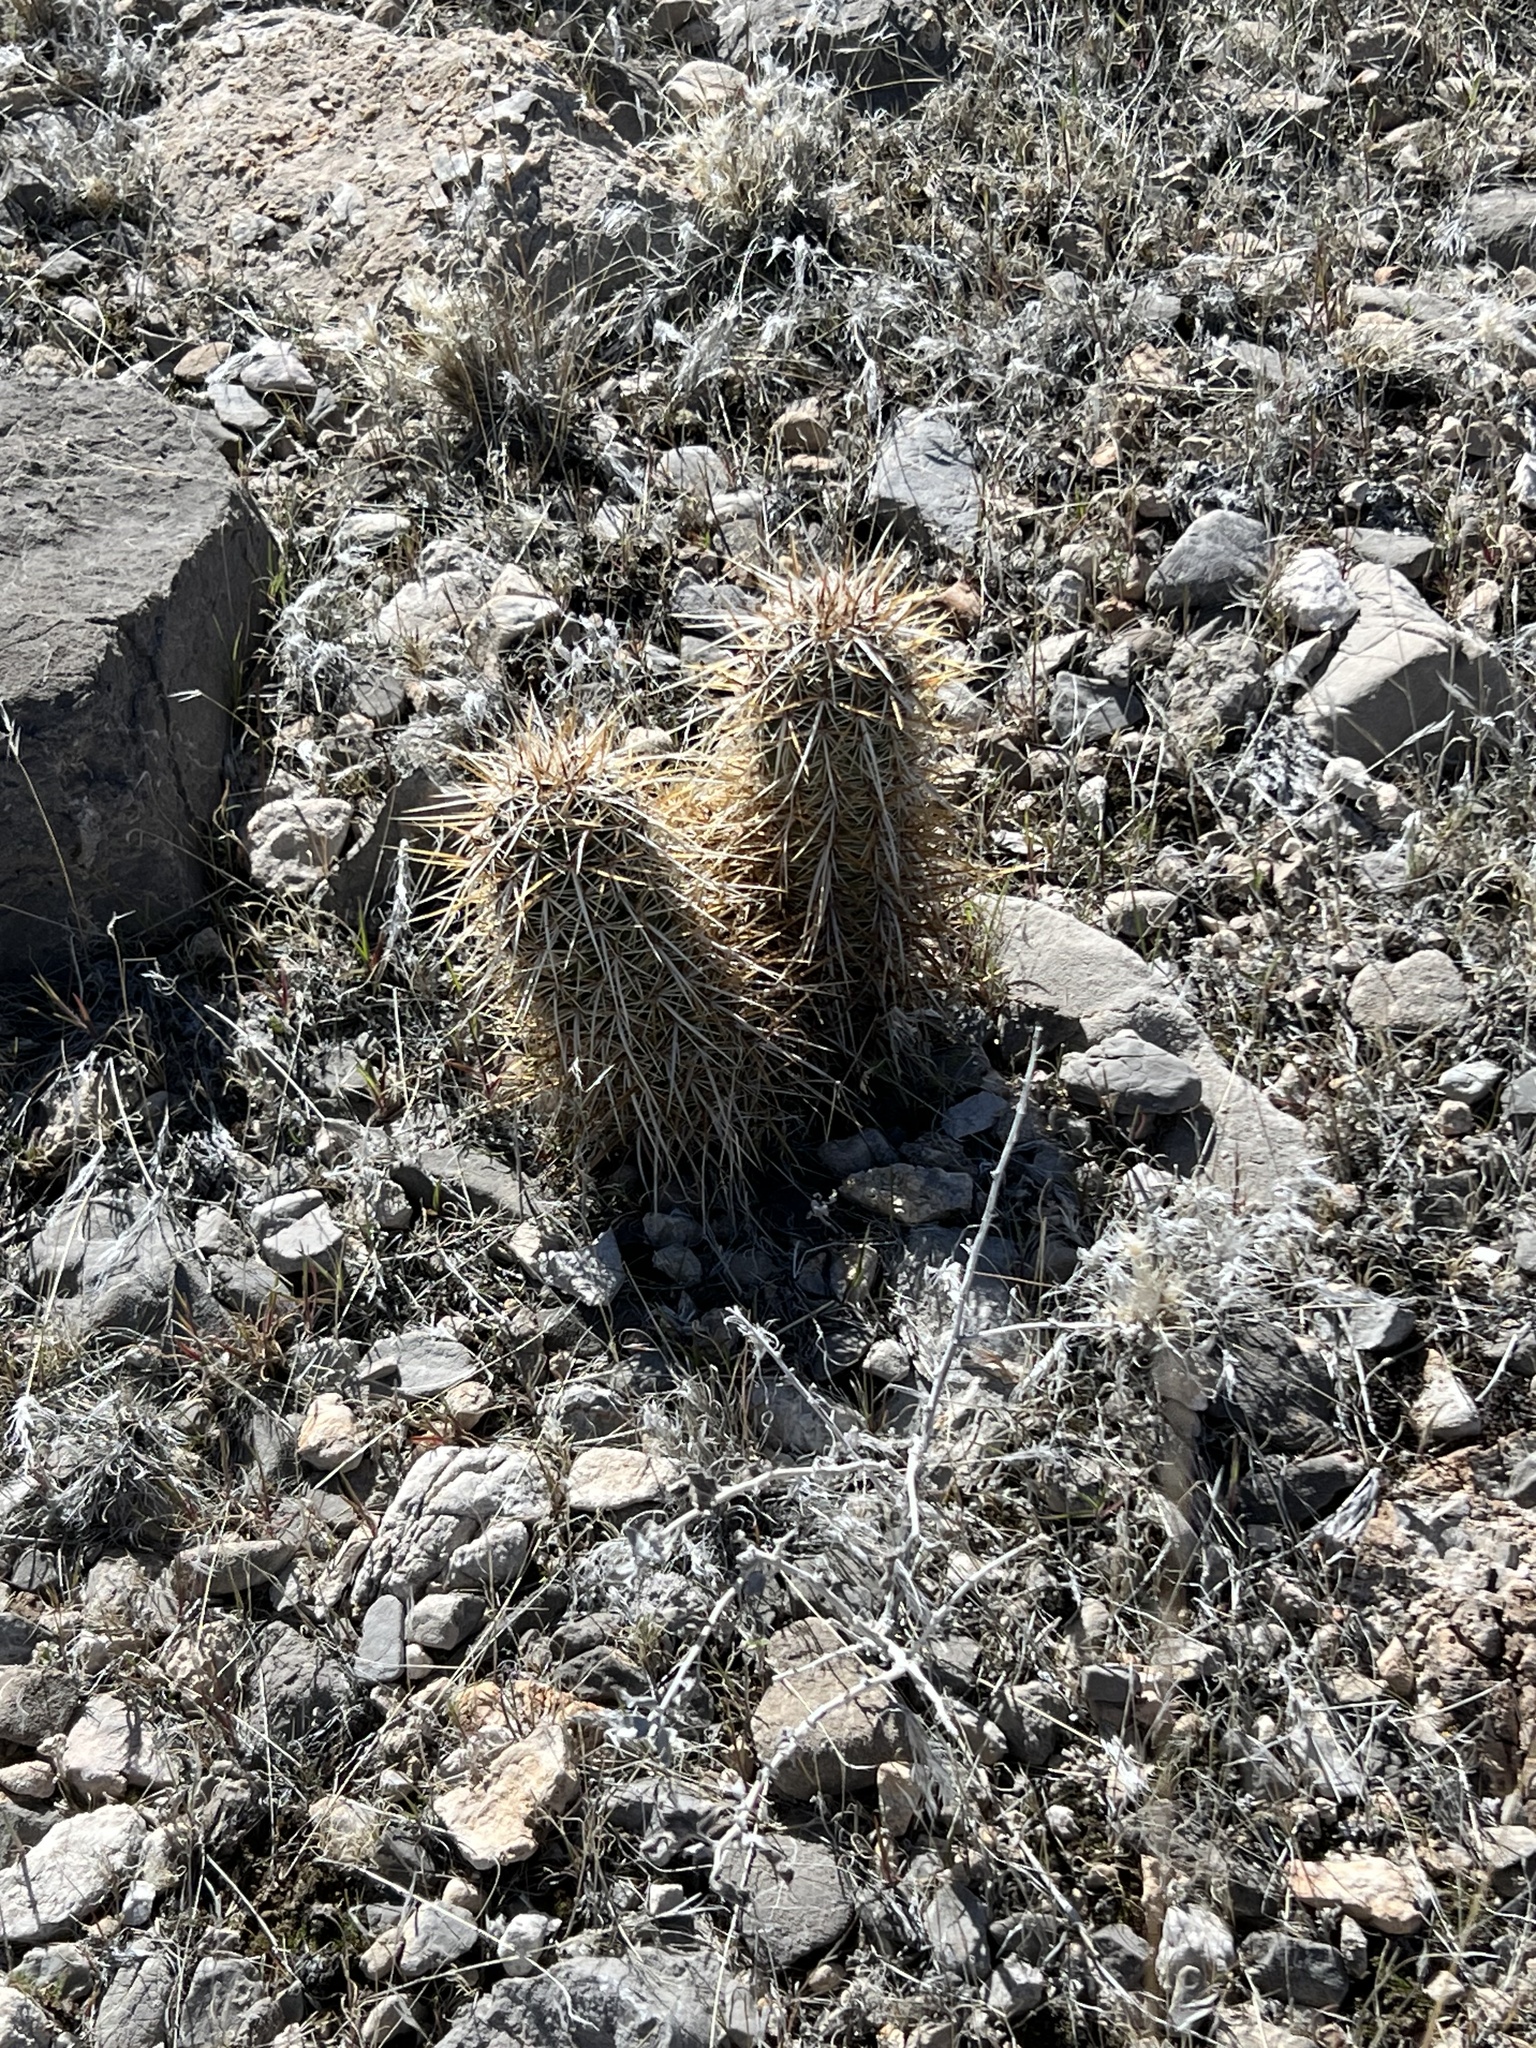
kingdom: Plantae
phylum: Tracheophyta
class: Magnoliopsida
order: Caryophyllales
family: Cactaceae
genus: Echinocereus
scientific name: Echinocereus engelmannii
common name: Engelmann's hedgehog cactus
